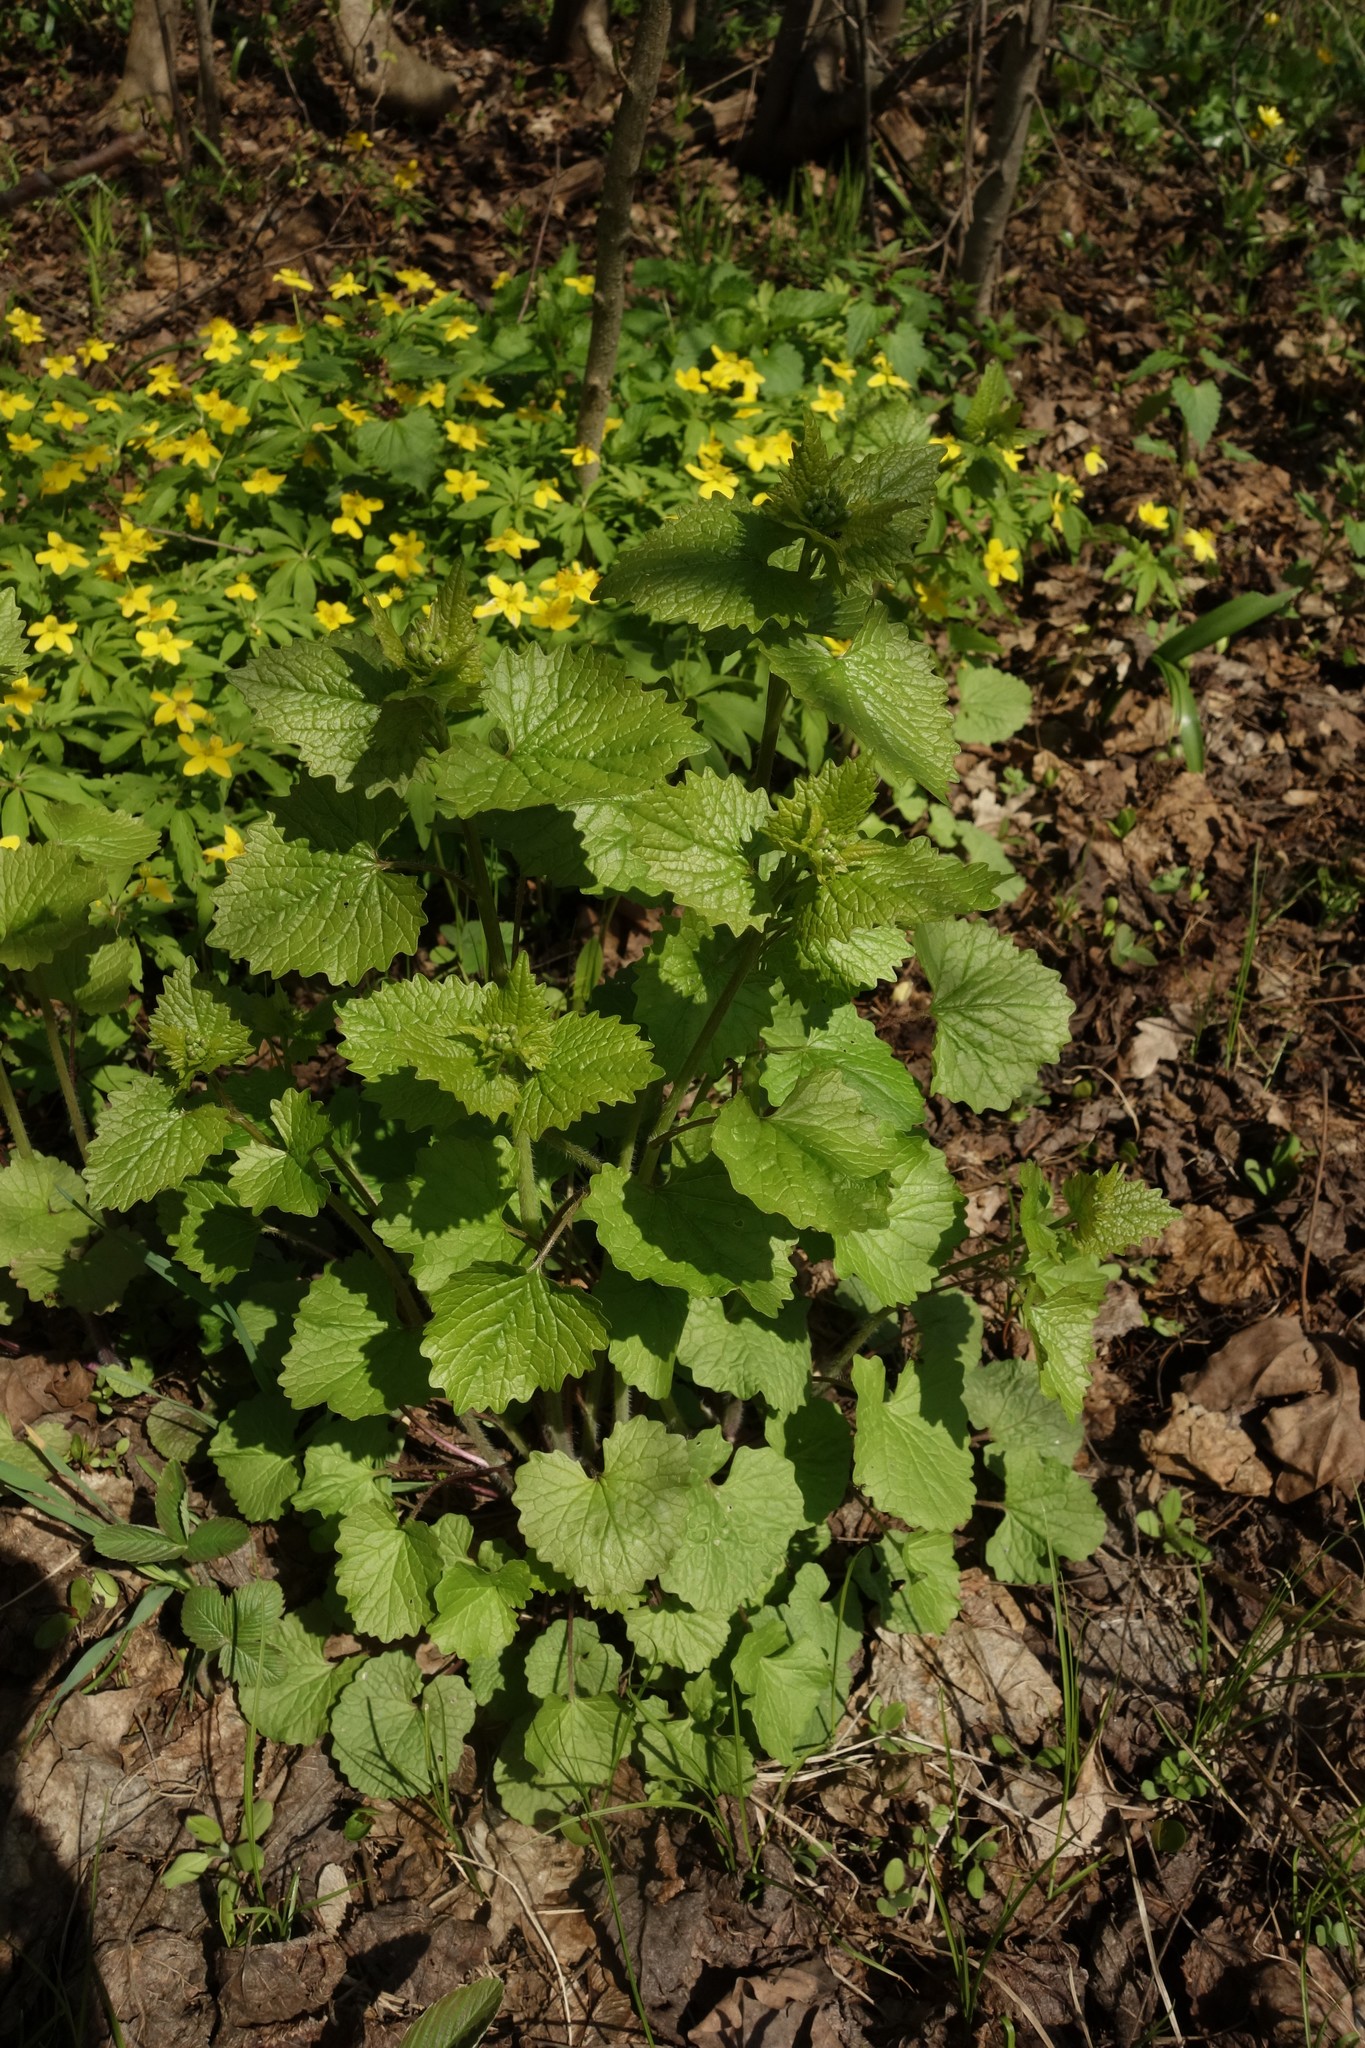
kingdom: Plantae
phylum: Tracheophyta
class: Magnoliopsida
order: Brassicales
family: Brassicaceae
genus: Alliaria
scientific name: Alliaria petiolata
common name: Garlic mustard
